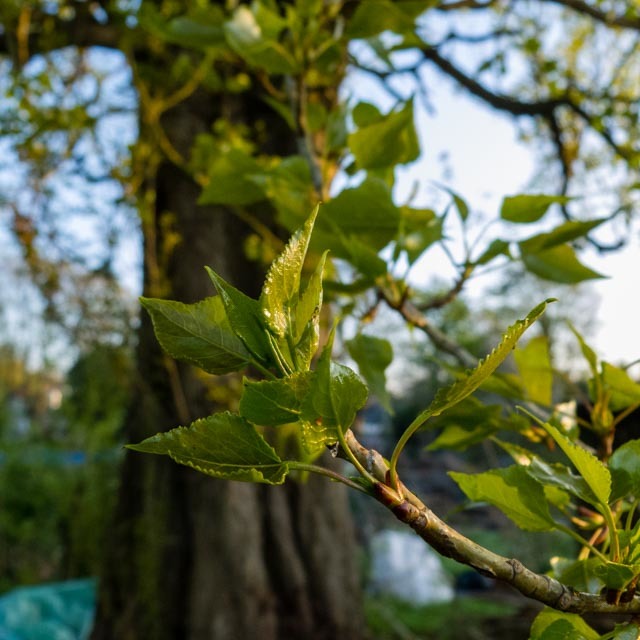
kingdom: Plantae
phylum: Tracheophyta
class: Magnoliopsida
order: Malpighiales
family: Salicaceae
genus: Populus
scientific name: Populus nigra
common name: Black poplar
